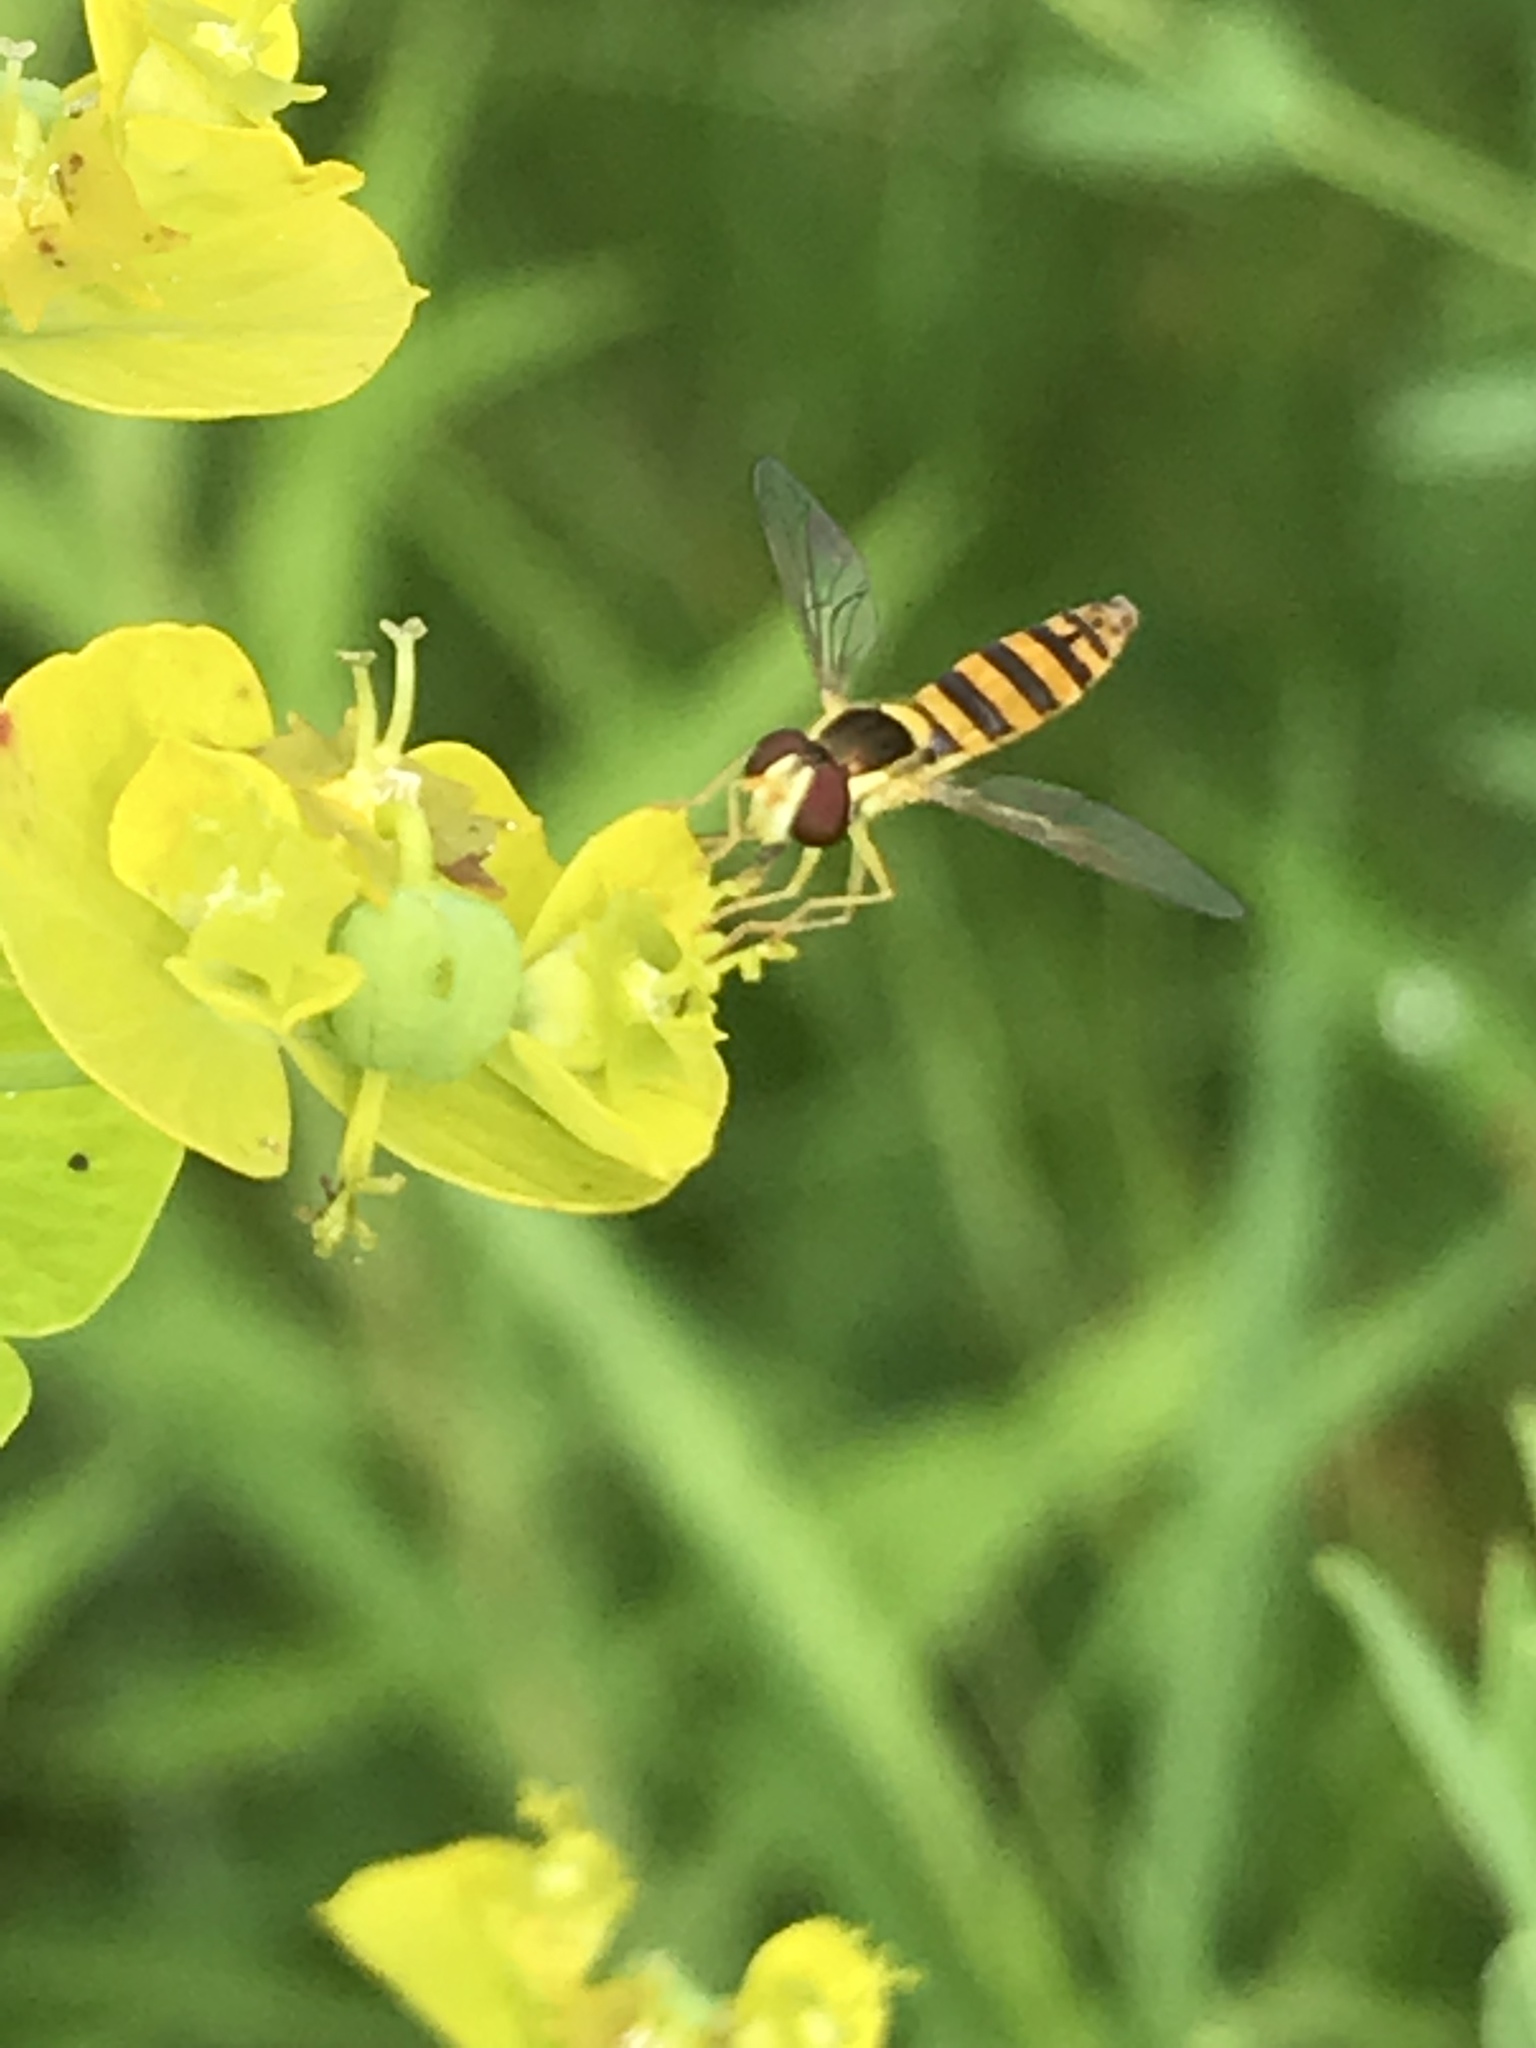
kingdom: Animalia
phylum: Arthropoda
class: Insecta
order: Diptera
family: Syrphidae
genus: Sphaerophoria
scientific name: Sphaerophoria
